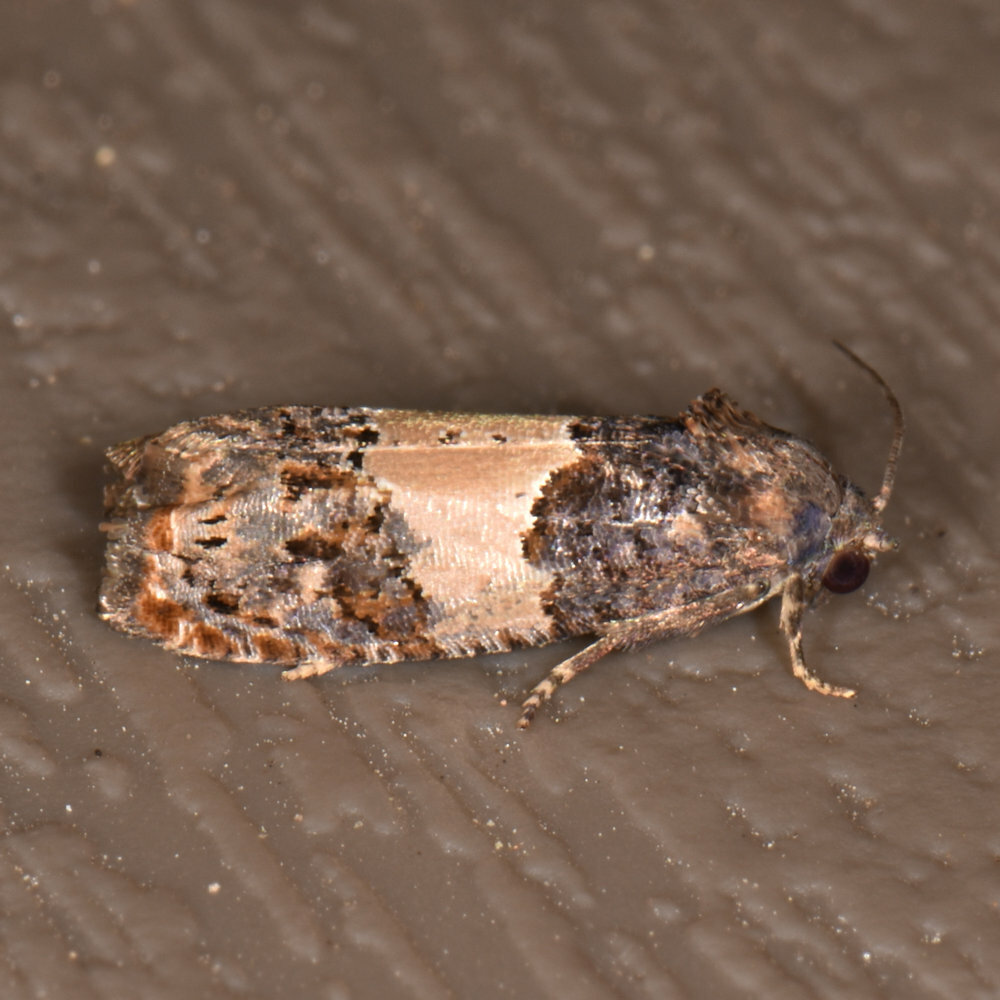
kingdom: Animalia
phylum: Arthropoda
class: Insecta
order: Lepidoptera
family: Tortricidae
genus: Epiblema
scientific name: Epiblema glenni
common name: Glenn's epiblema
